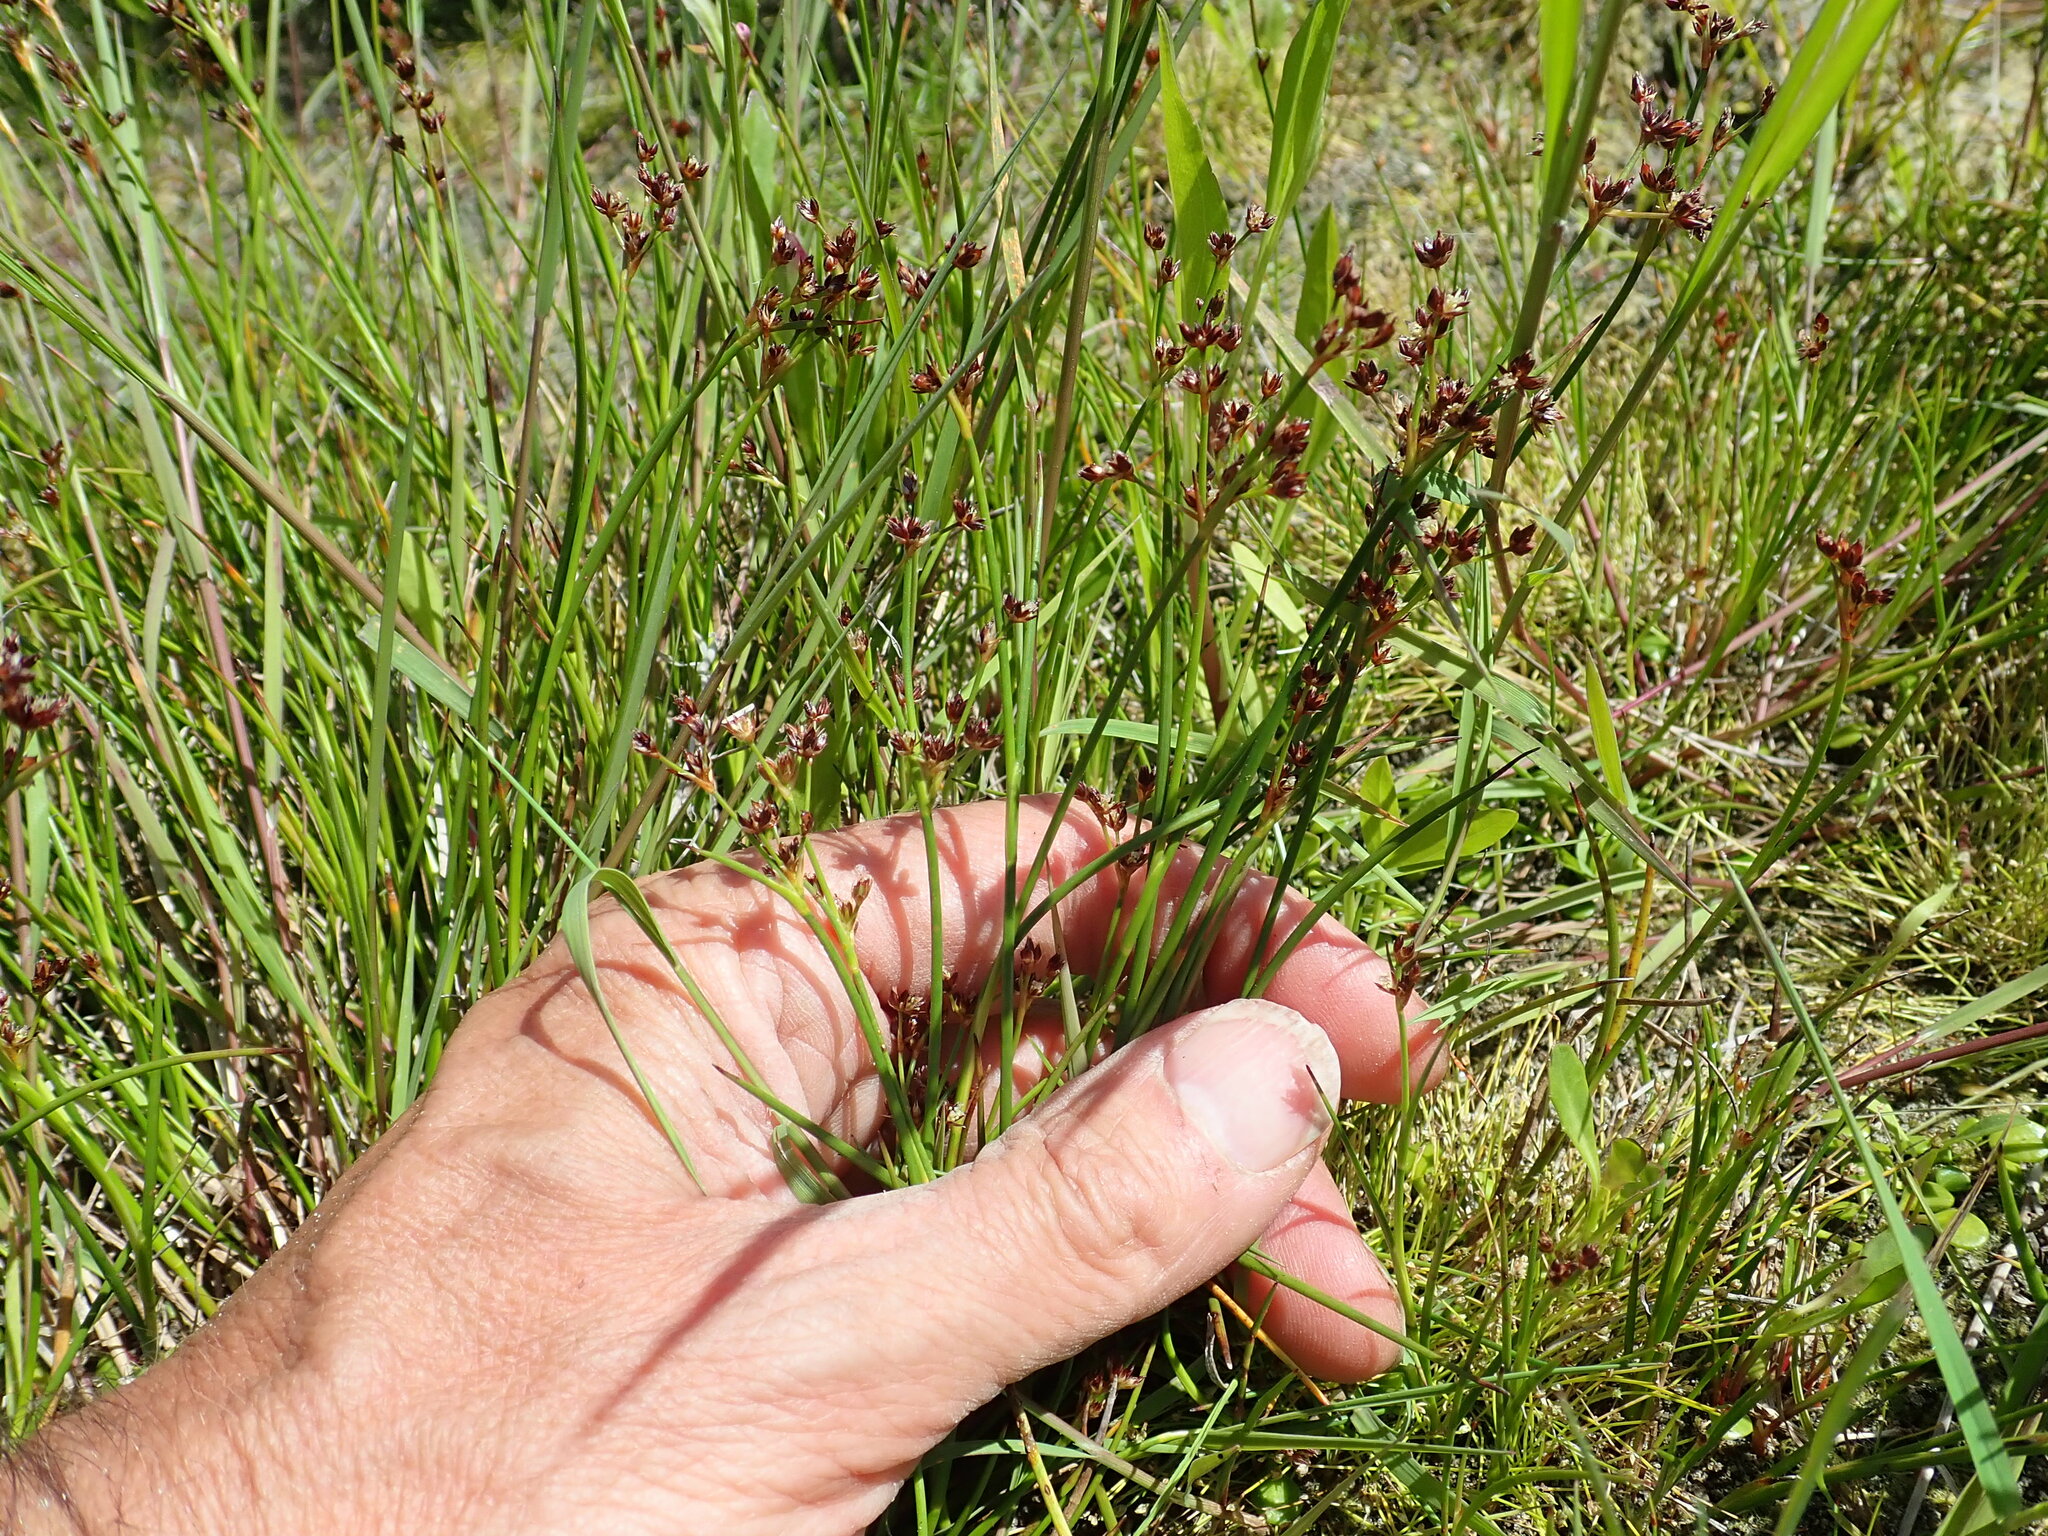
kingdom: Plantae
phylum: Tracheophyta
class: Liliopsida
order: Poales
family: Juncaceae
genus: Juncus
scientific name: Juncus articulatus
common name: Jointed rush
